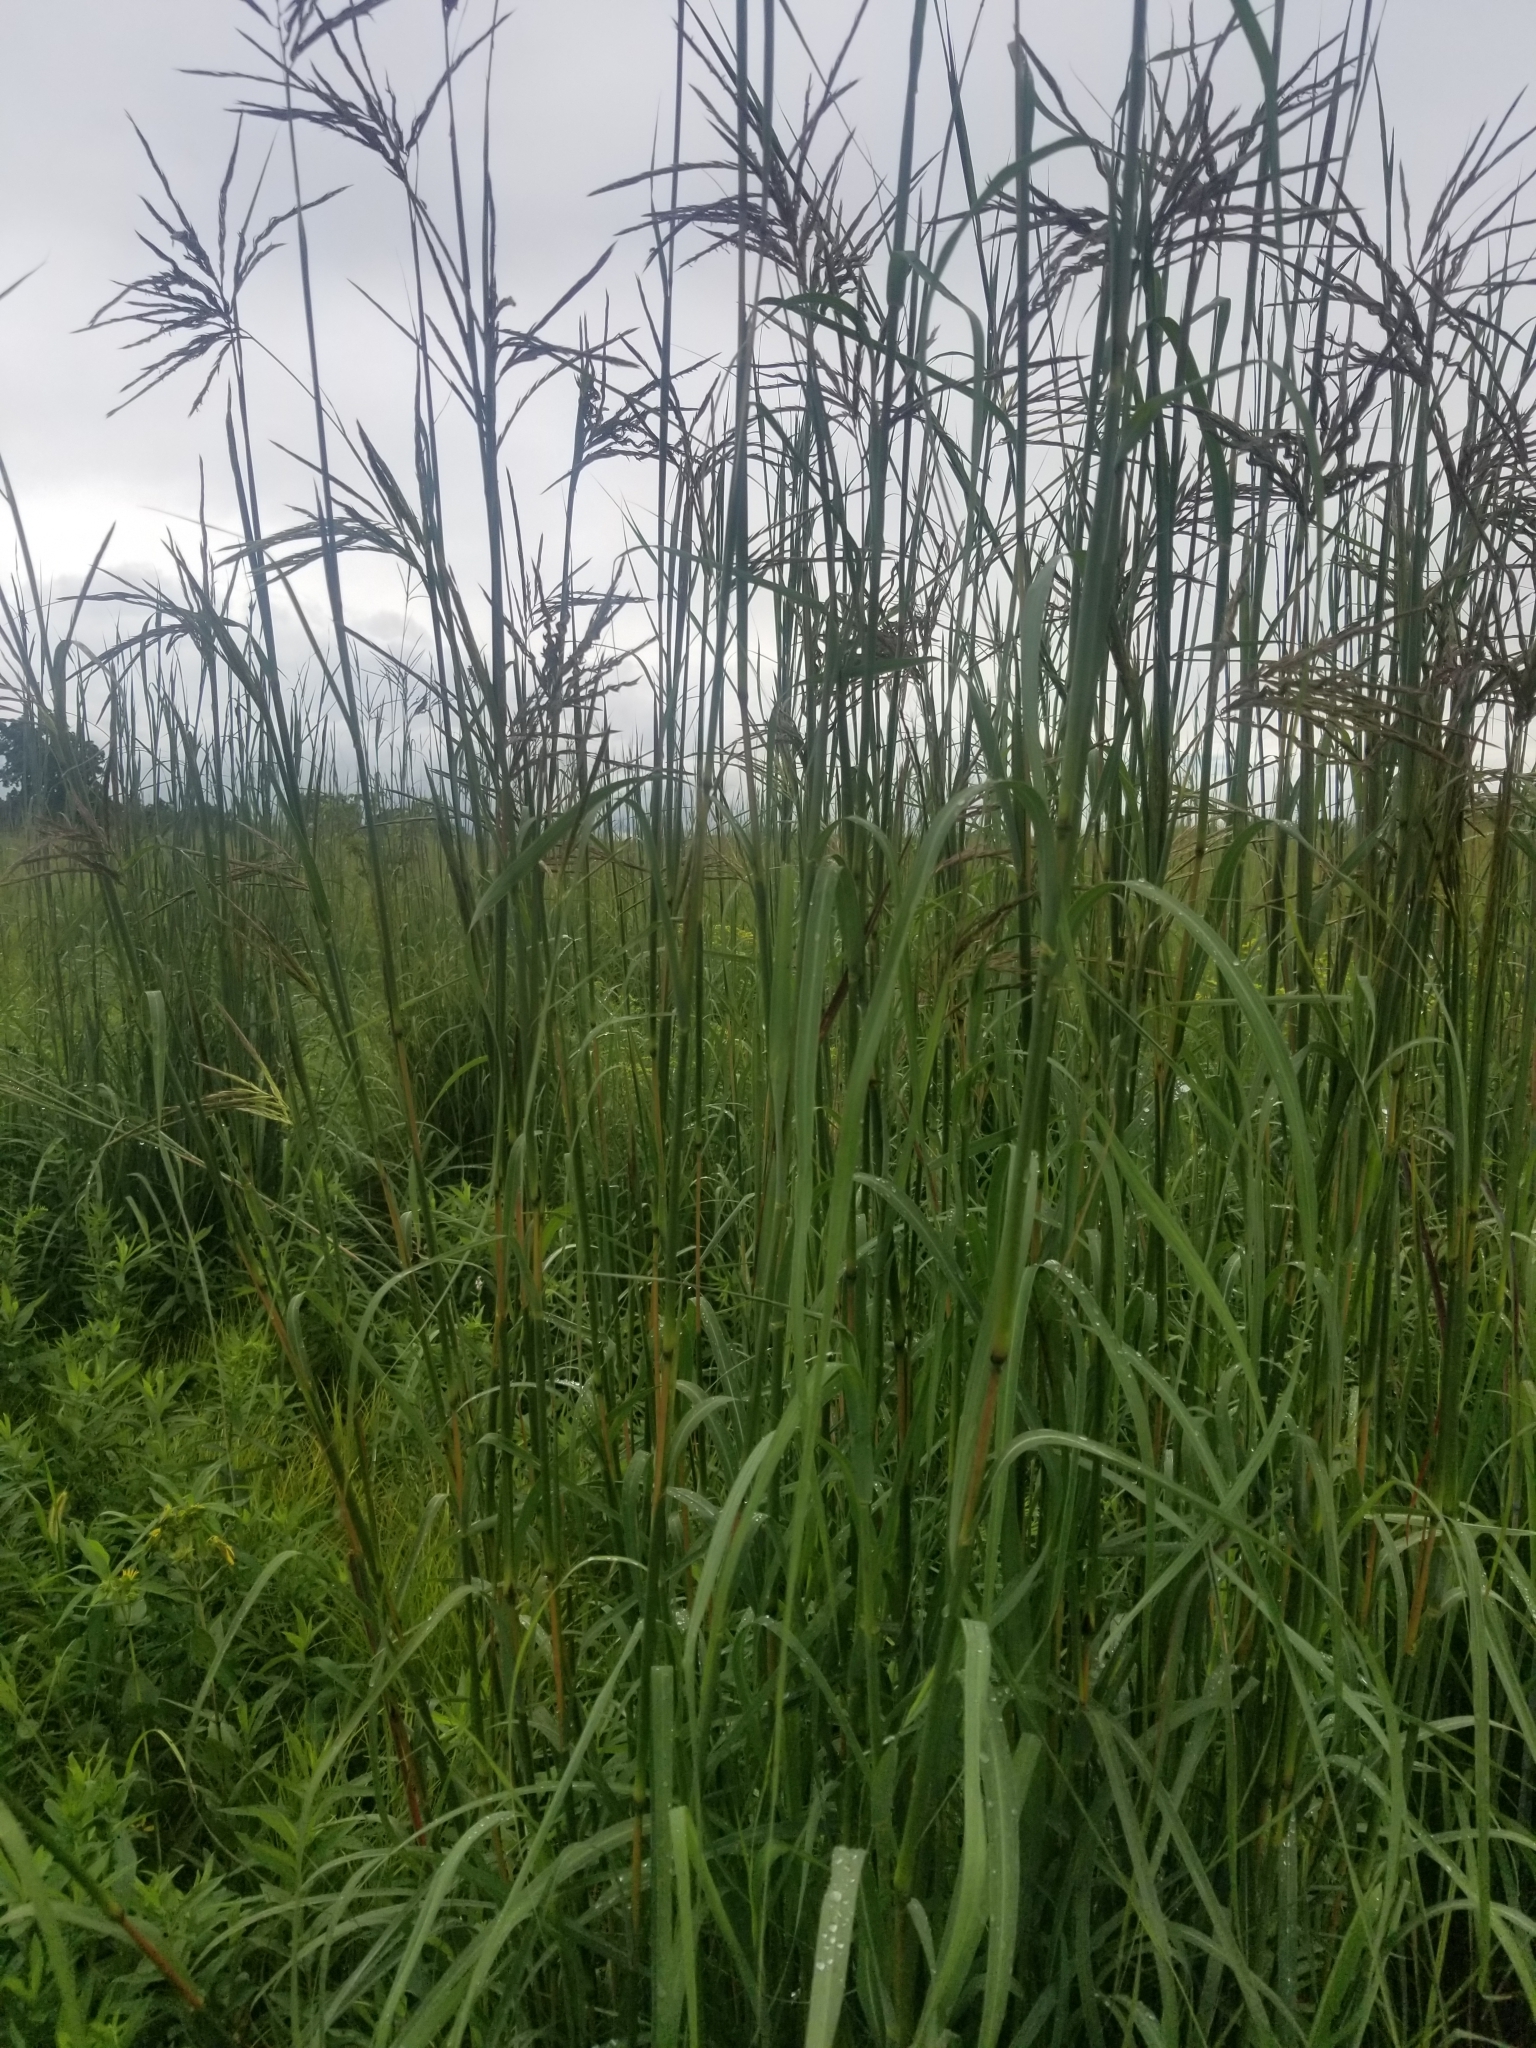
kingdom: Plantae
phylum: Tracheophyta
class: Liliopsida
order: Poales
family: Poaceae
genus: Andropogon
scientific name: Andropogon gerardi
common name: Big bluestem
